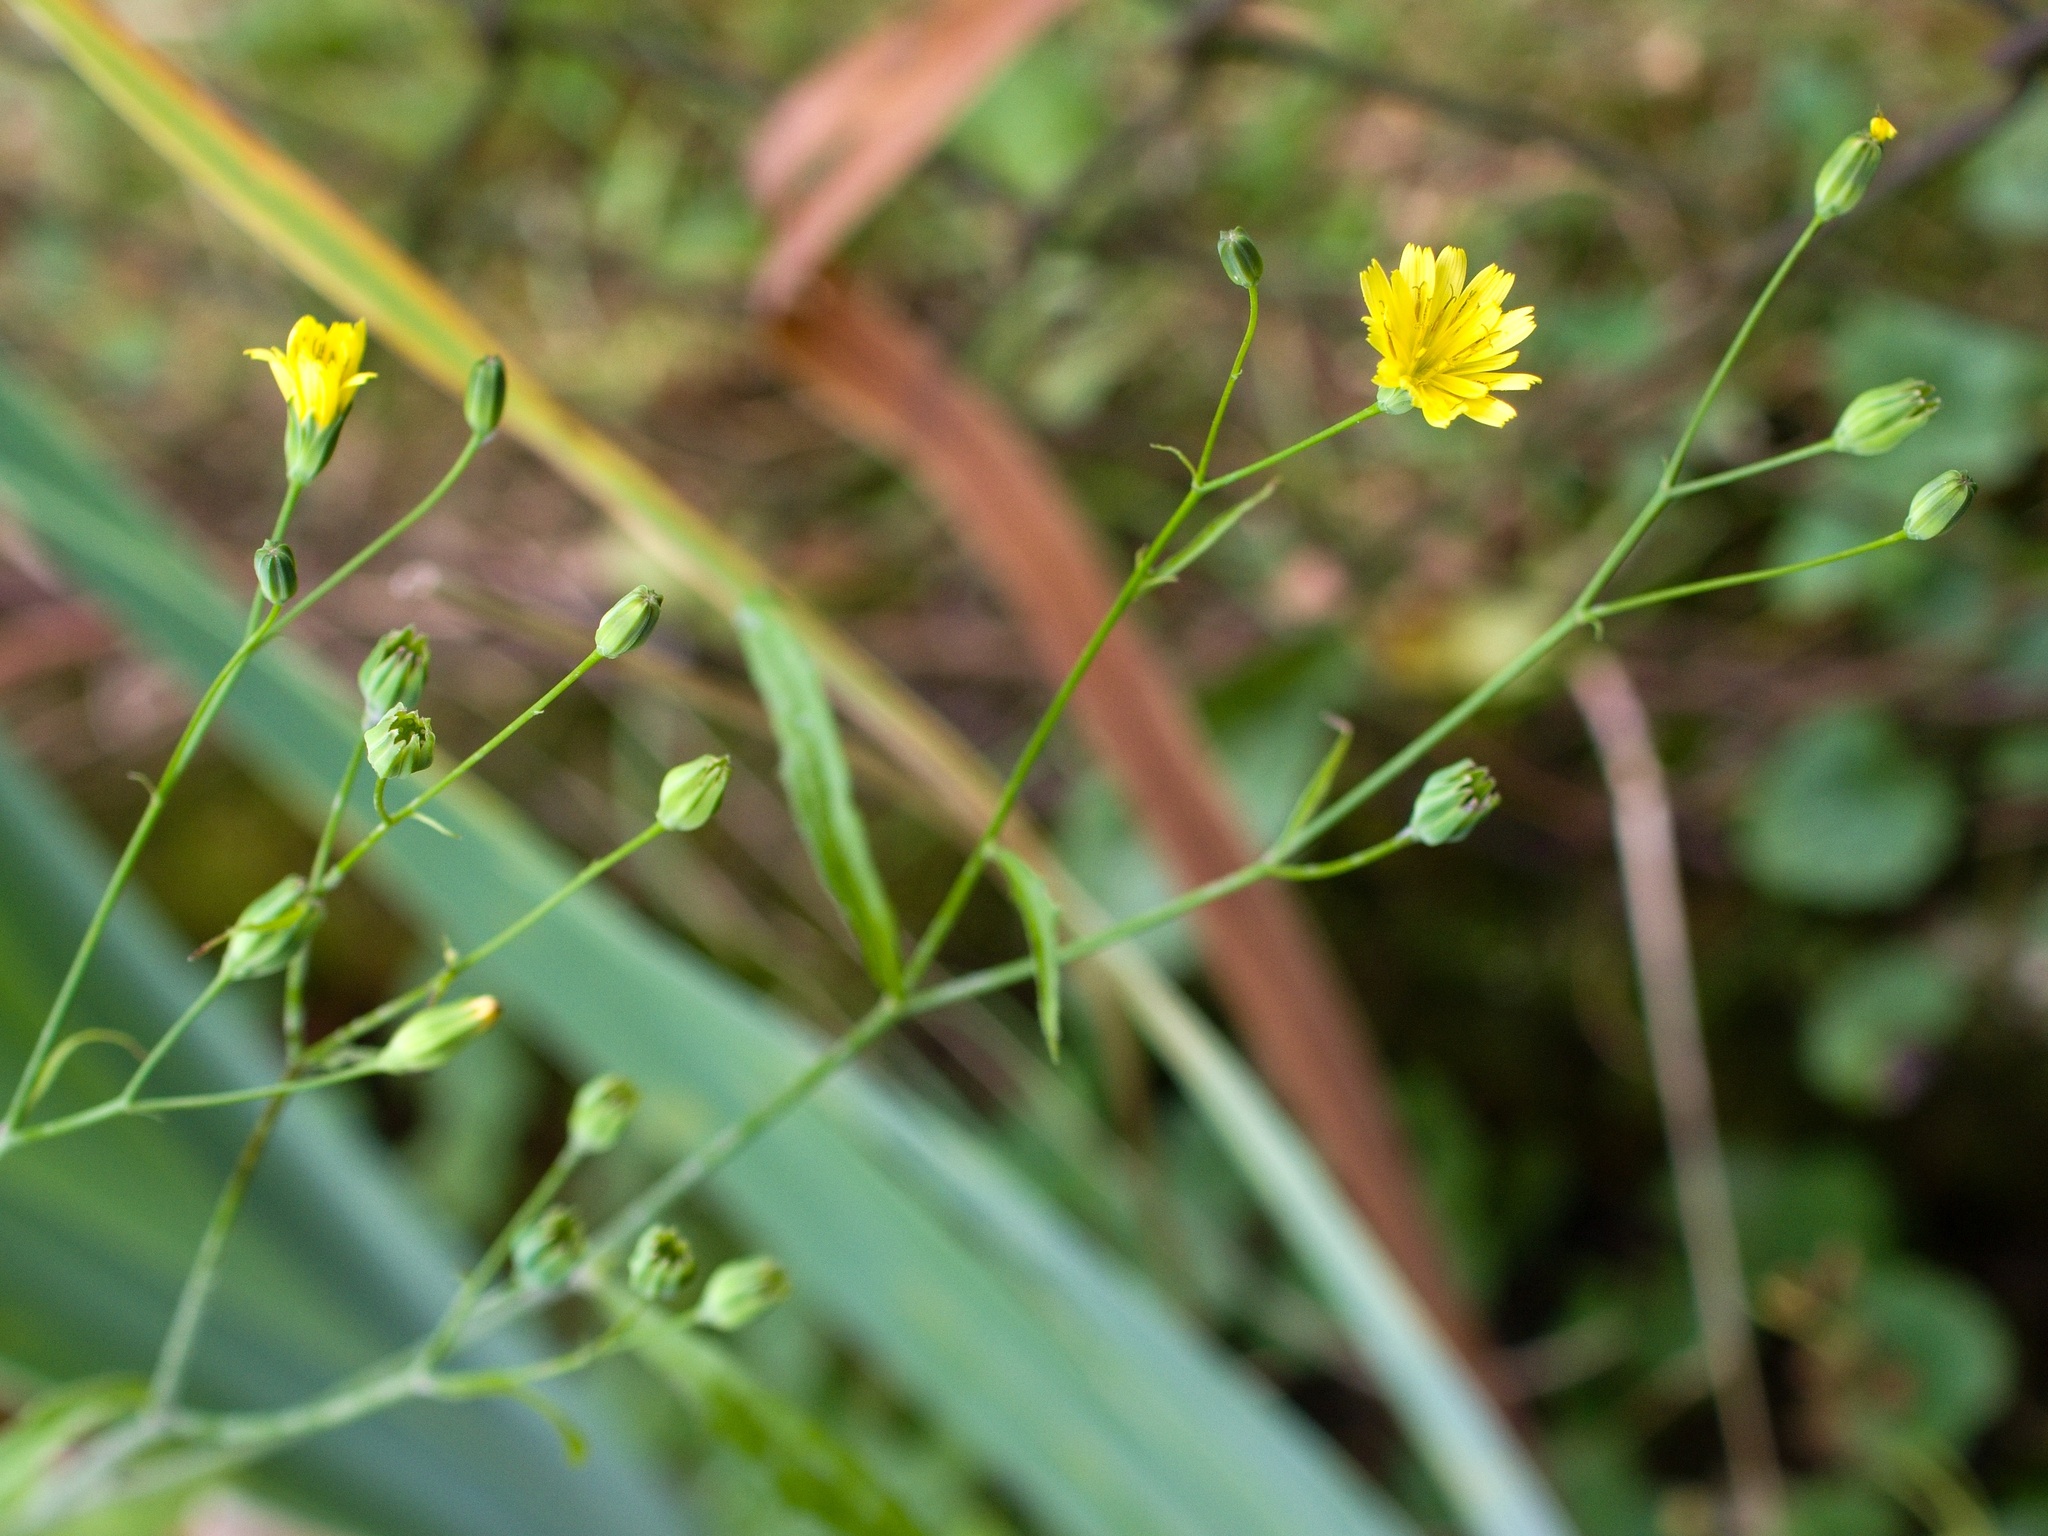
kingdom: Plantae
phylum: Tracheophyta
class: Magnoliopsida
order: Asterales
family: Asteraceae
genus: Lapsana
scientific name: Lapsana communis
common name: Nipplewort
